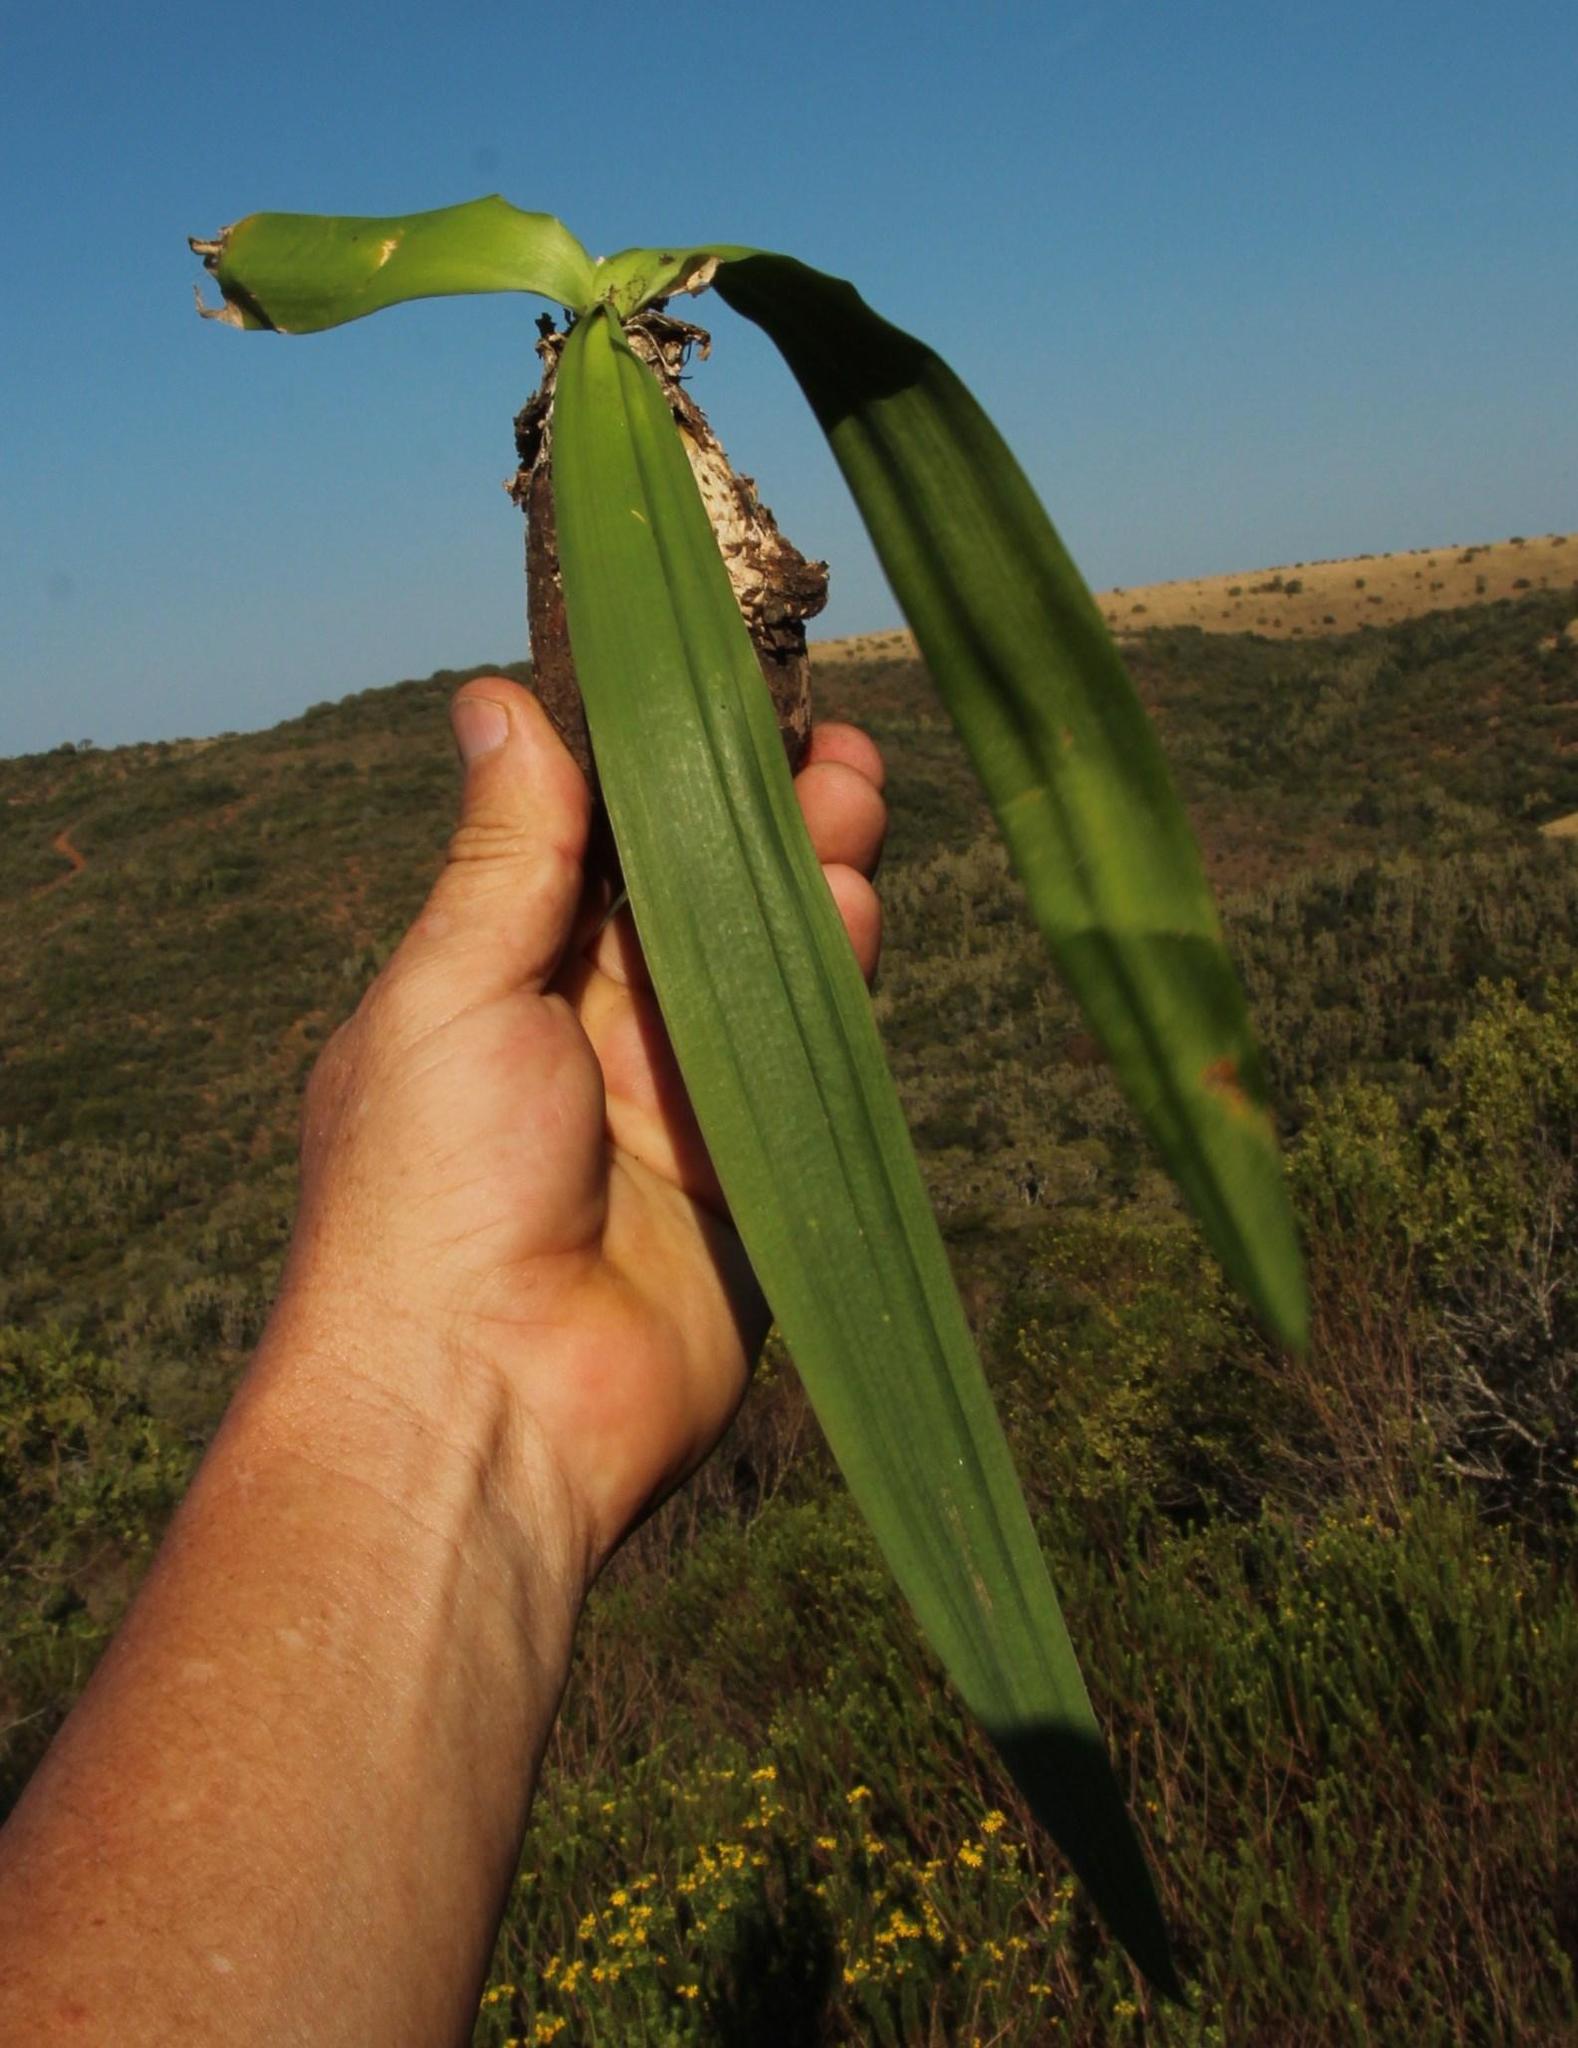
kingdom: Plantae
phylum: Tracheophyta
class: Liliopsida
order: Asparagales
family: Asparagaceae
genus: Drimia
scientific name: Drimia altissima
